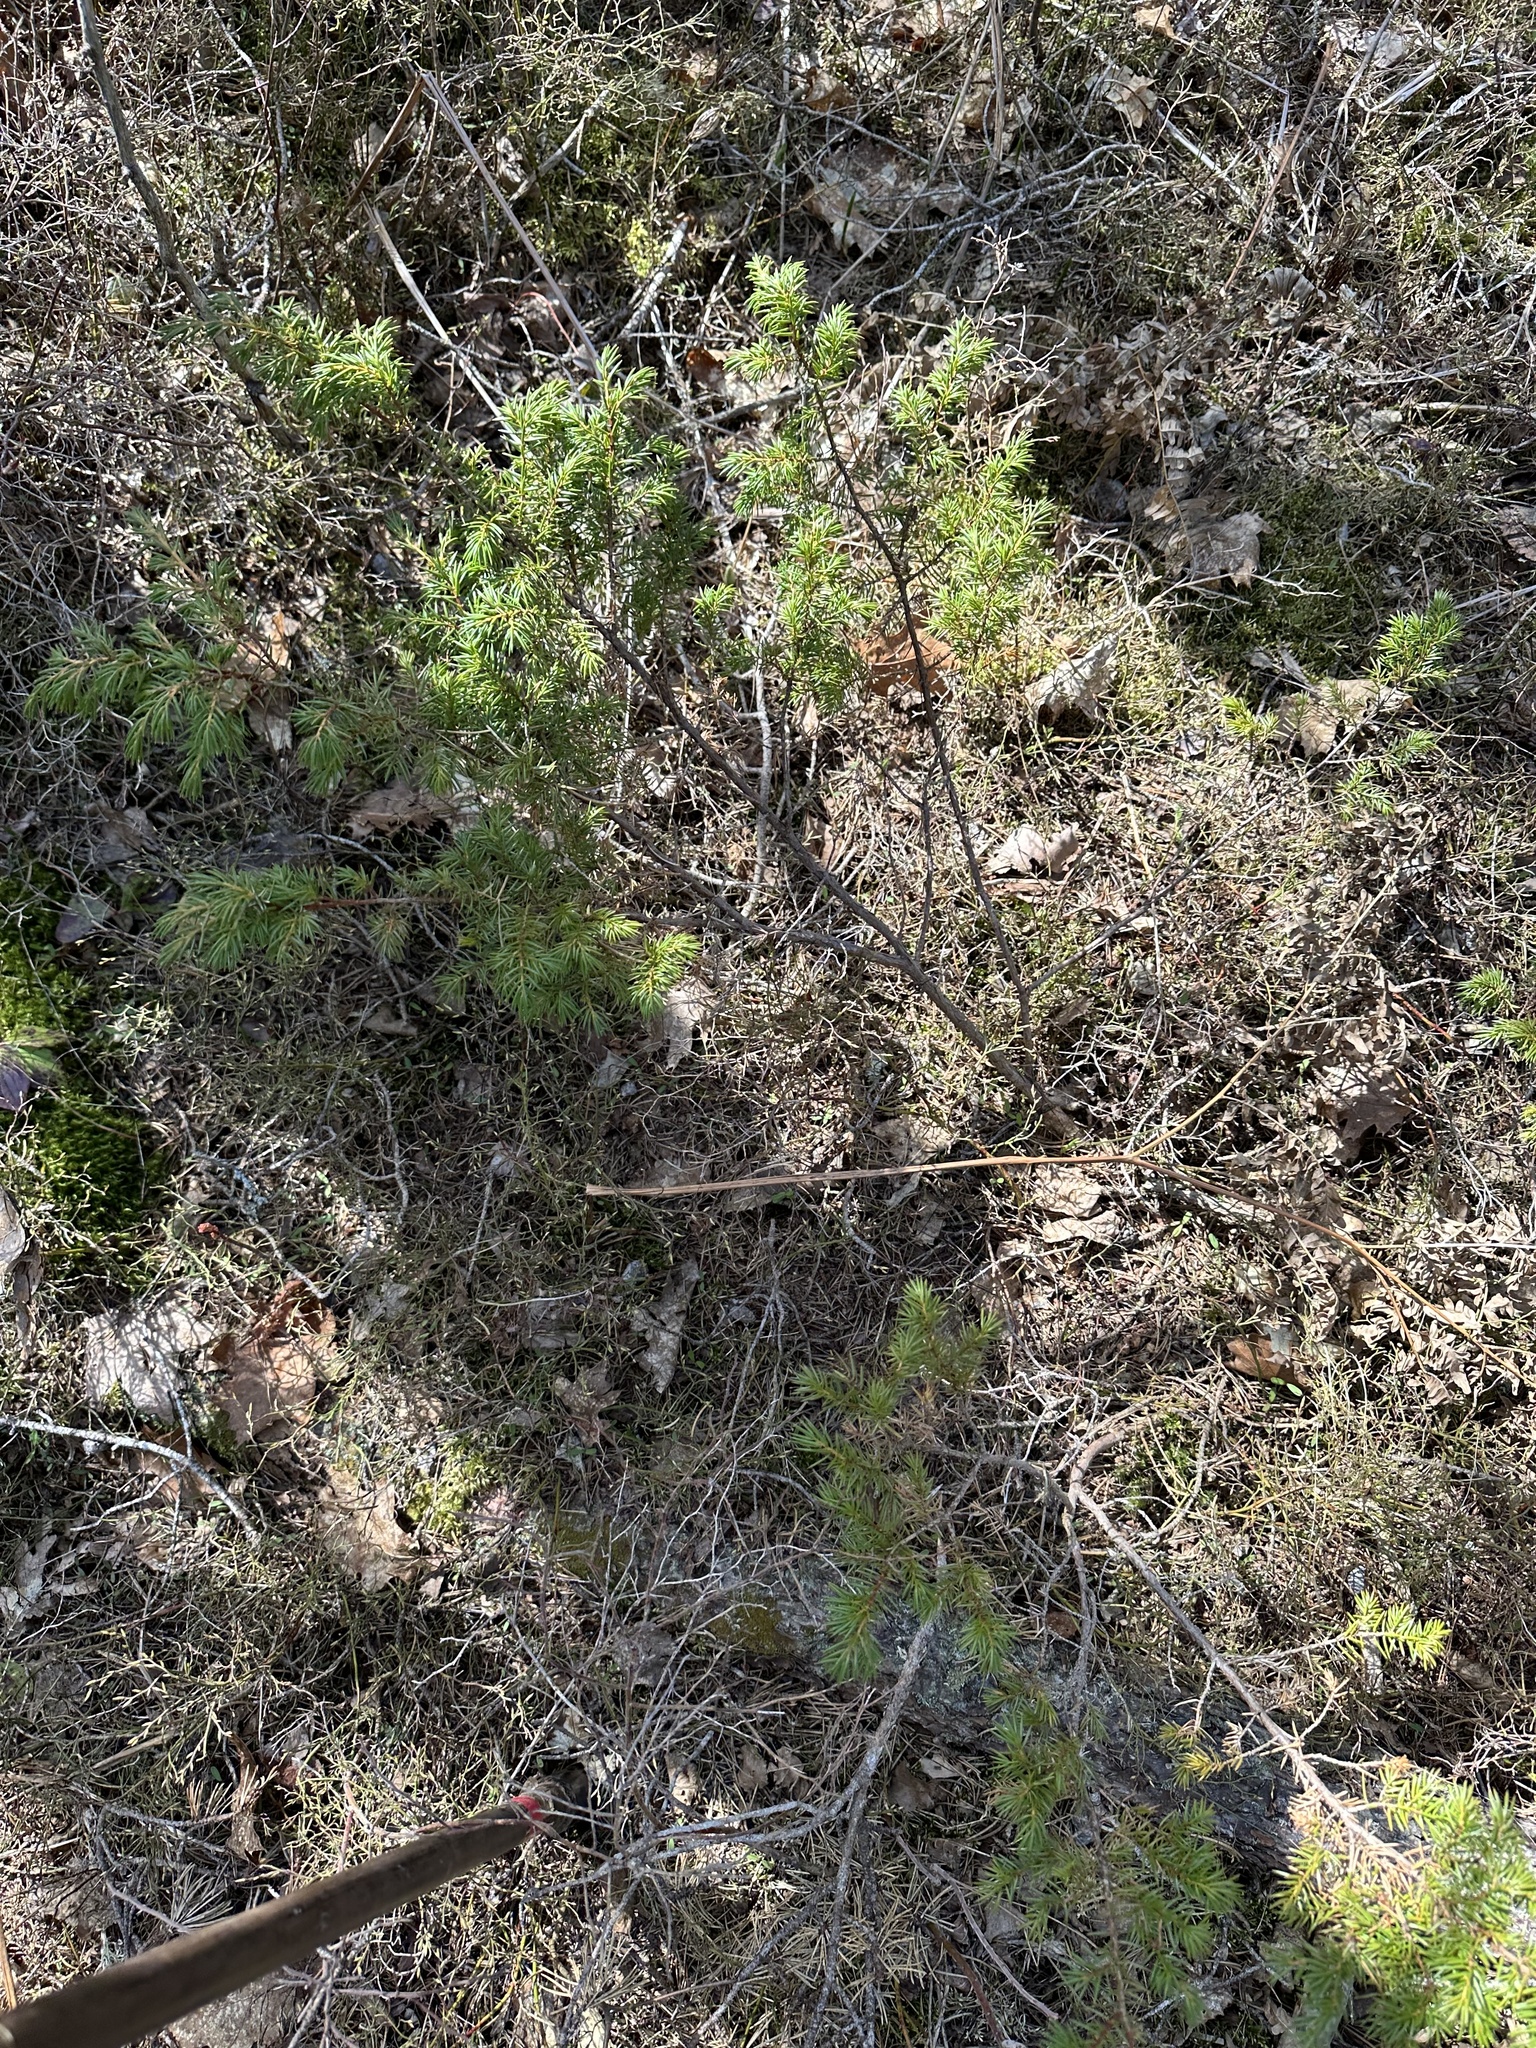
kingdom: Plantae
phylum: Tracheophyta
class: Pinopsida
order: Pinales
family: Cupressaceae
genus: Juniperus
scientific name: Juniperus communis
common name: Common juniper
